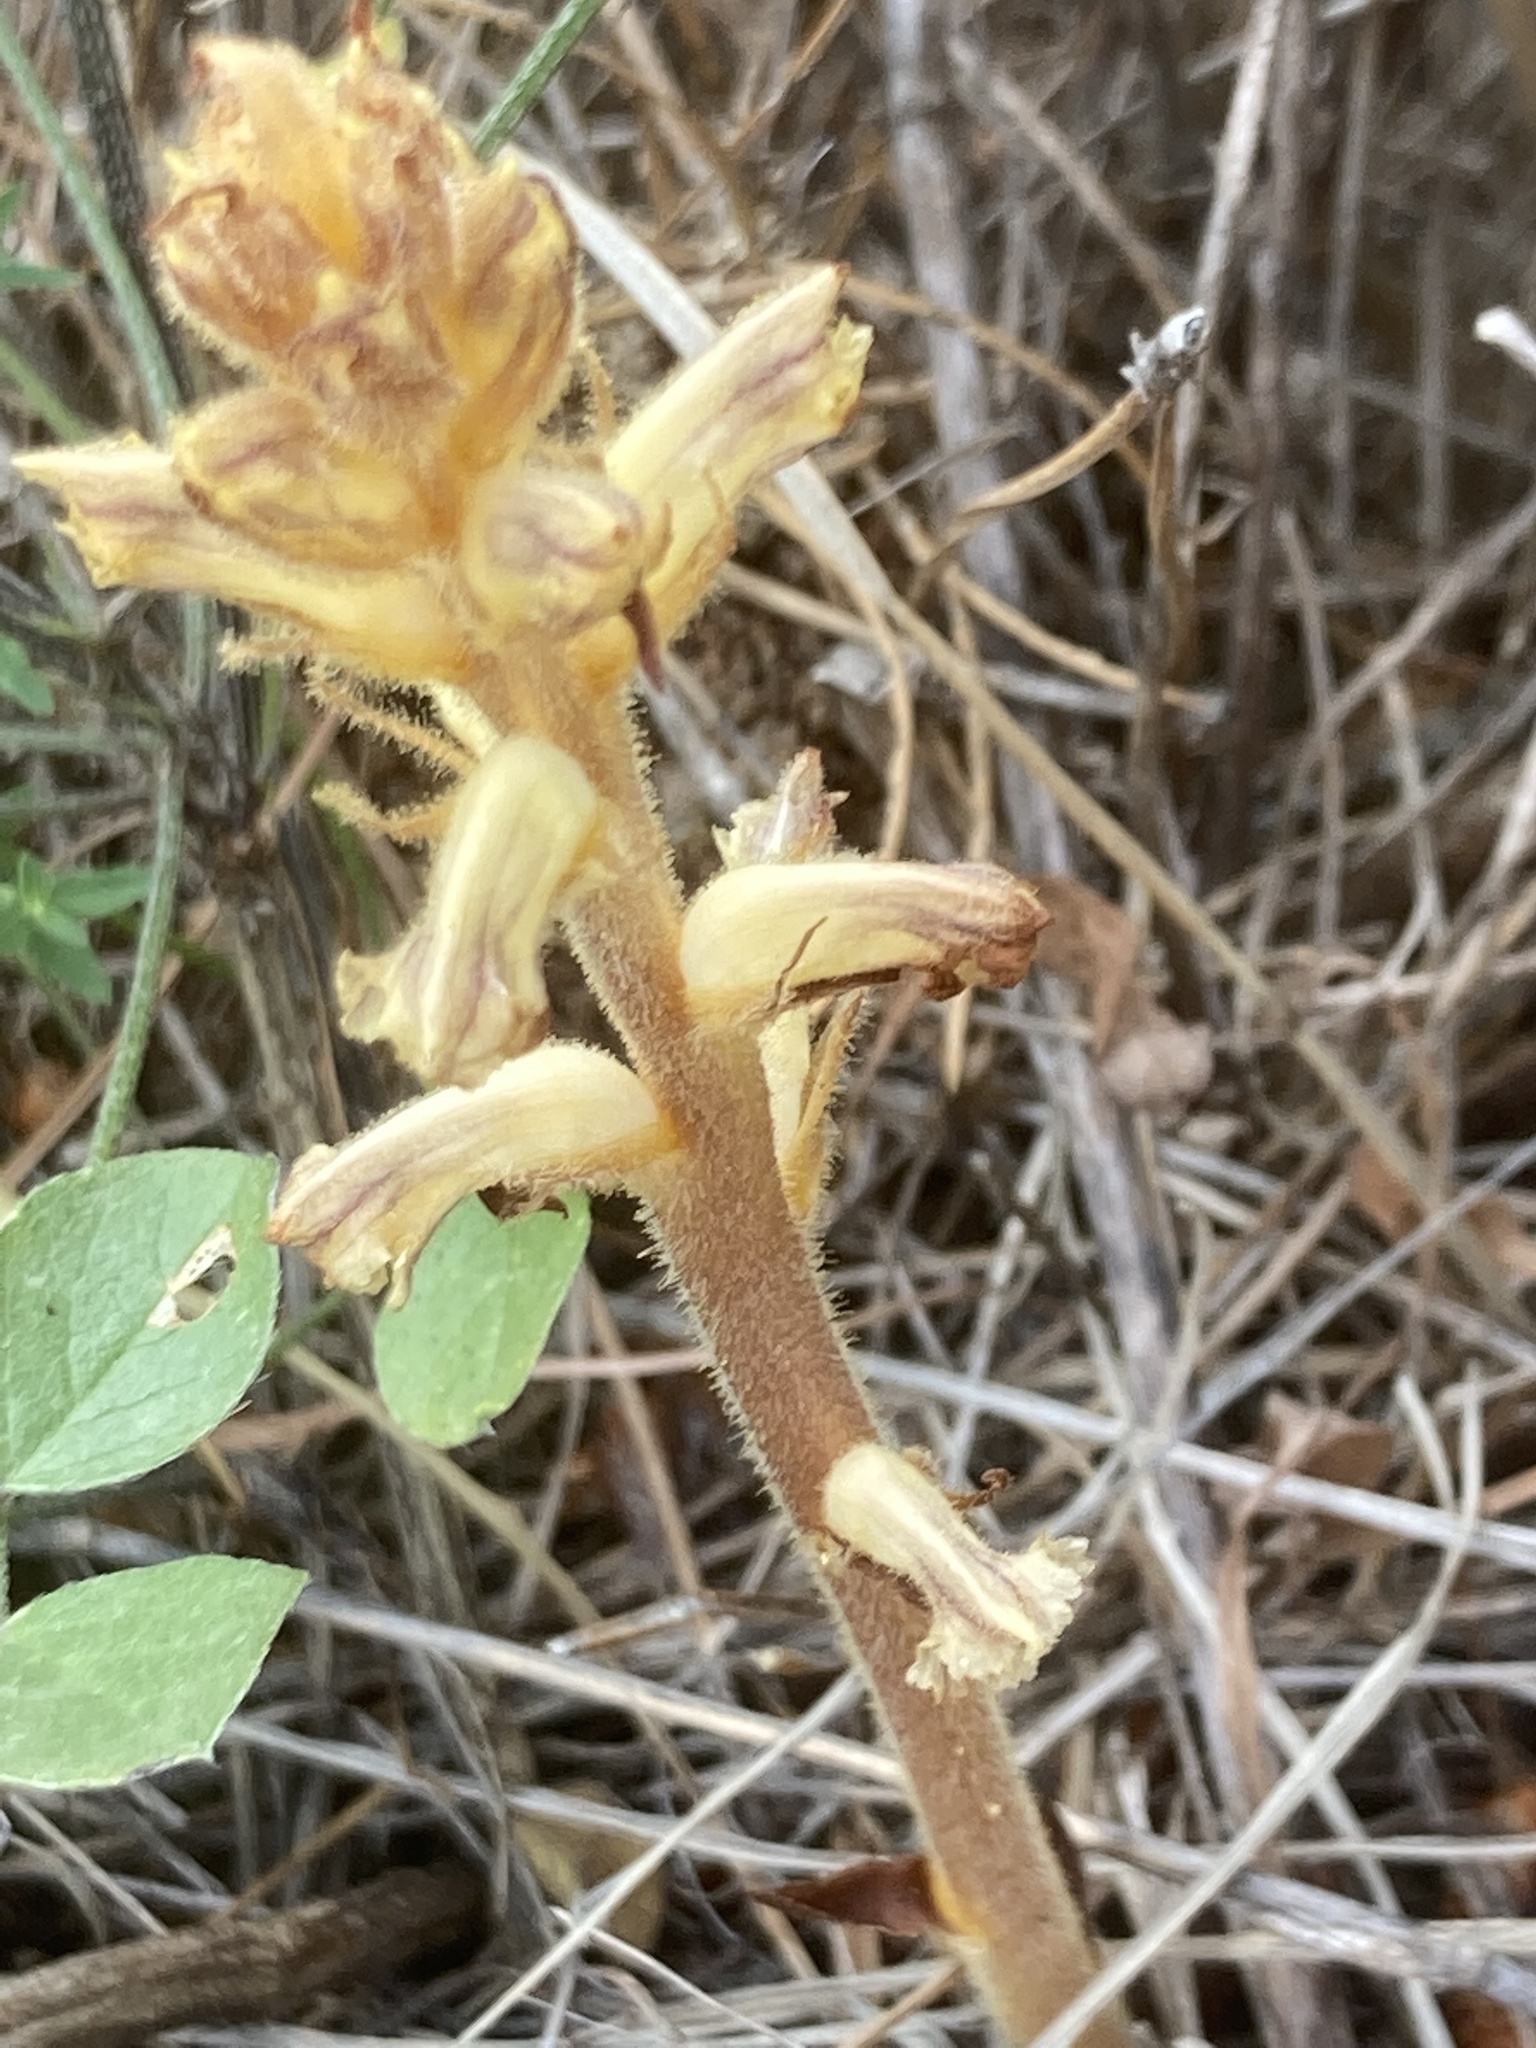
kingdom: Plantae
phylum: Tracheophyta
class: Magnoliopsida
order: Lamiales
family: Orobanchaceae
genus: Orobanche
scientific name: Orobanche minor
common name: Common broomrape
